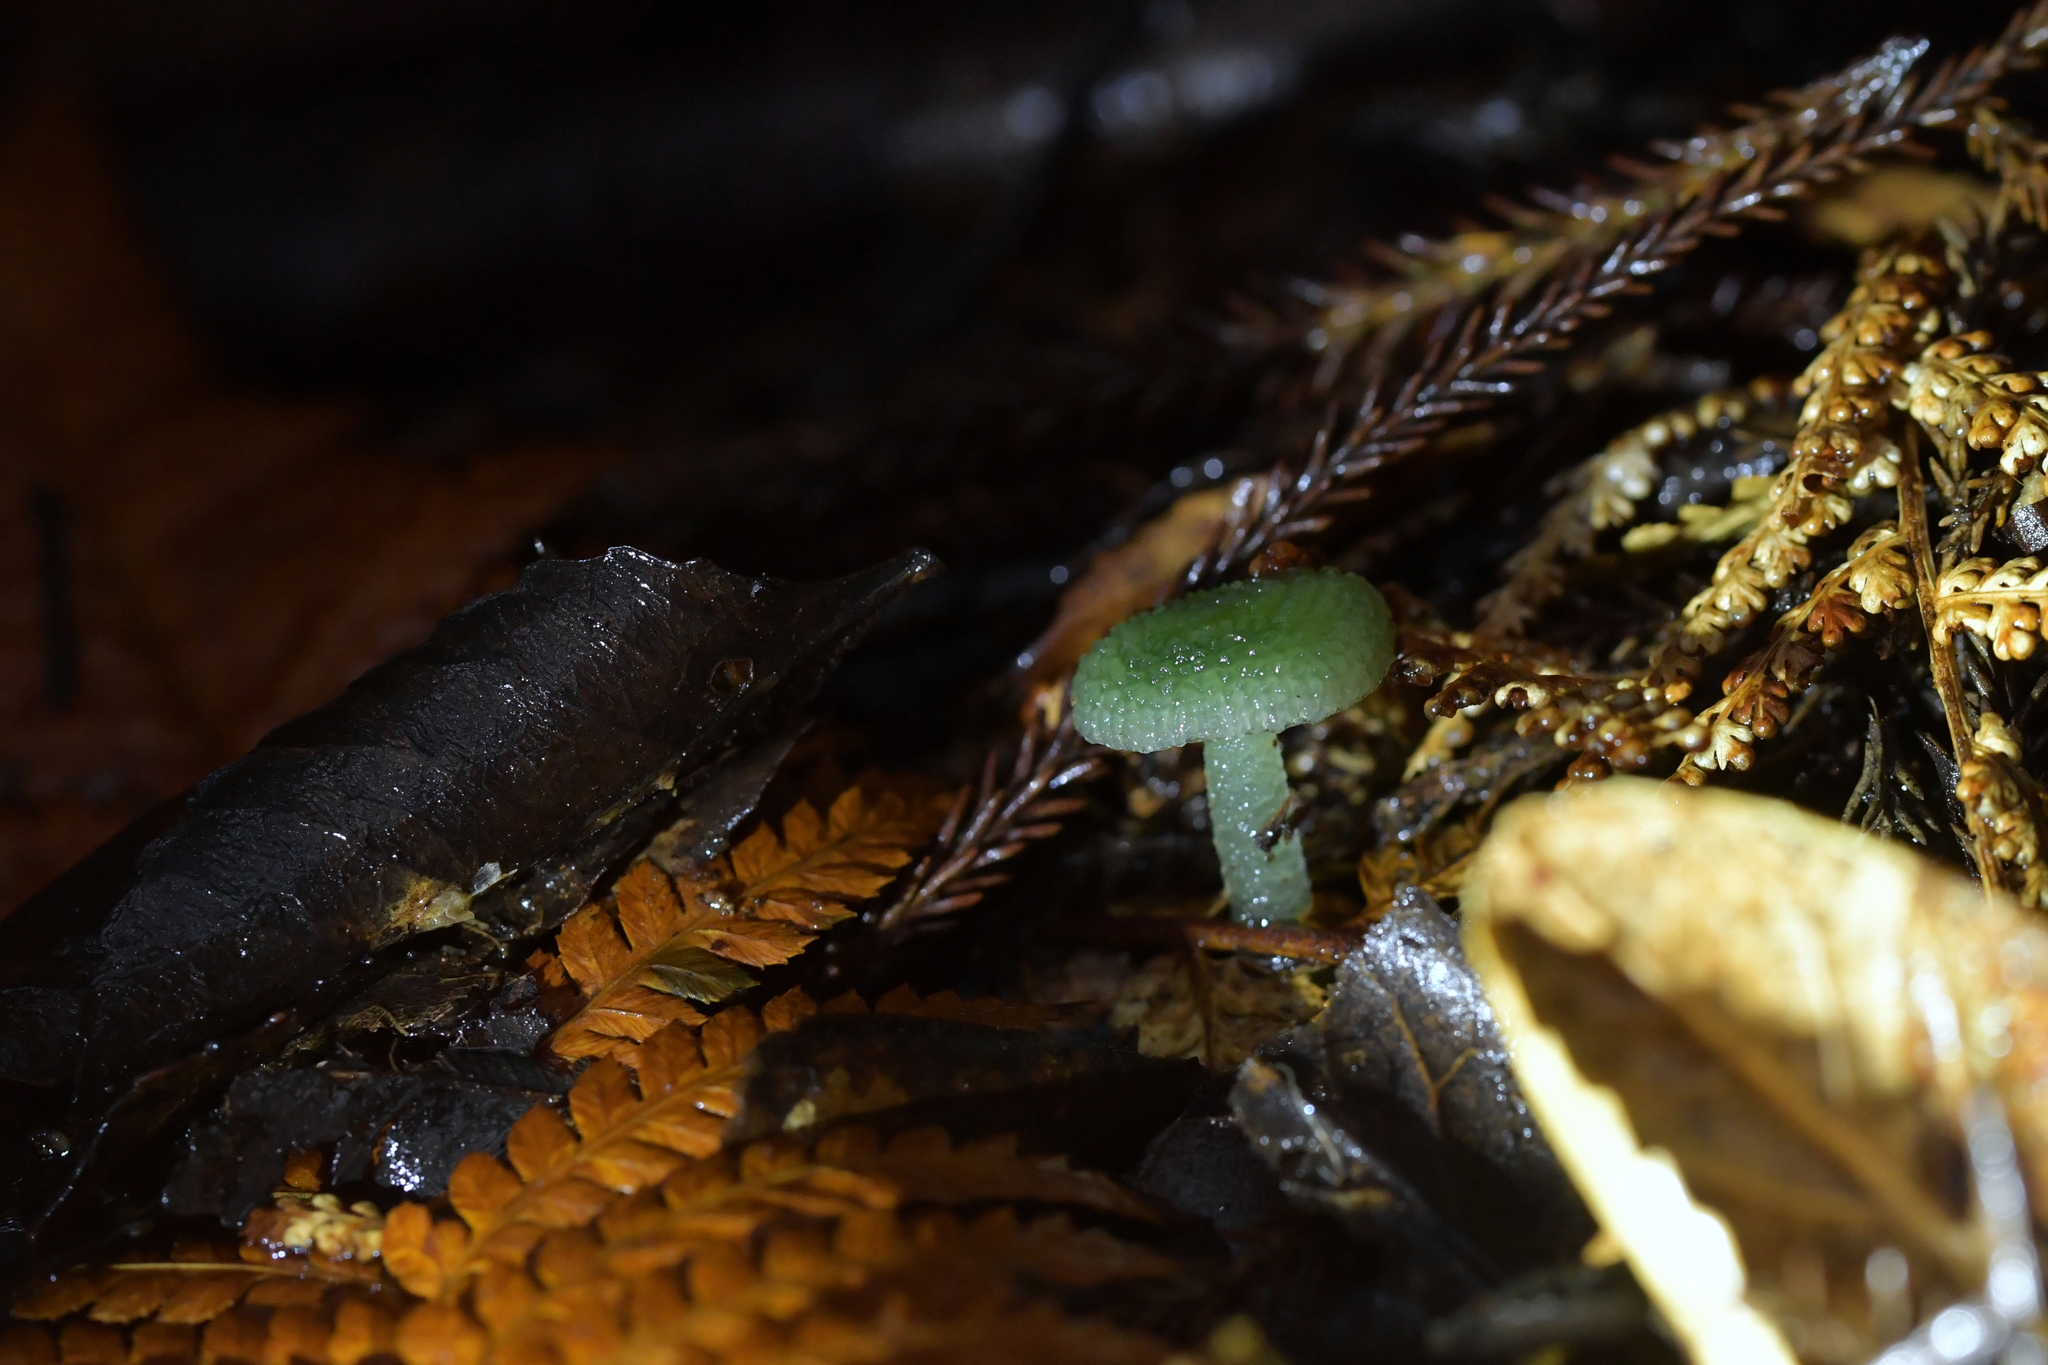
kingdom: Fungi
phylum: Basidiomycota
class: Agaricomycetes
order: Agaricales
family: Hygrophoraceae
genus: Gliophorus
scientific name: Gliophorus graminicolor
